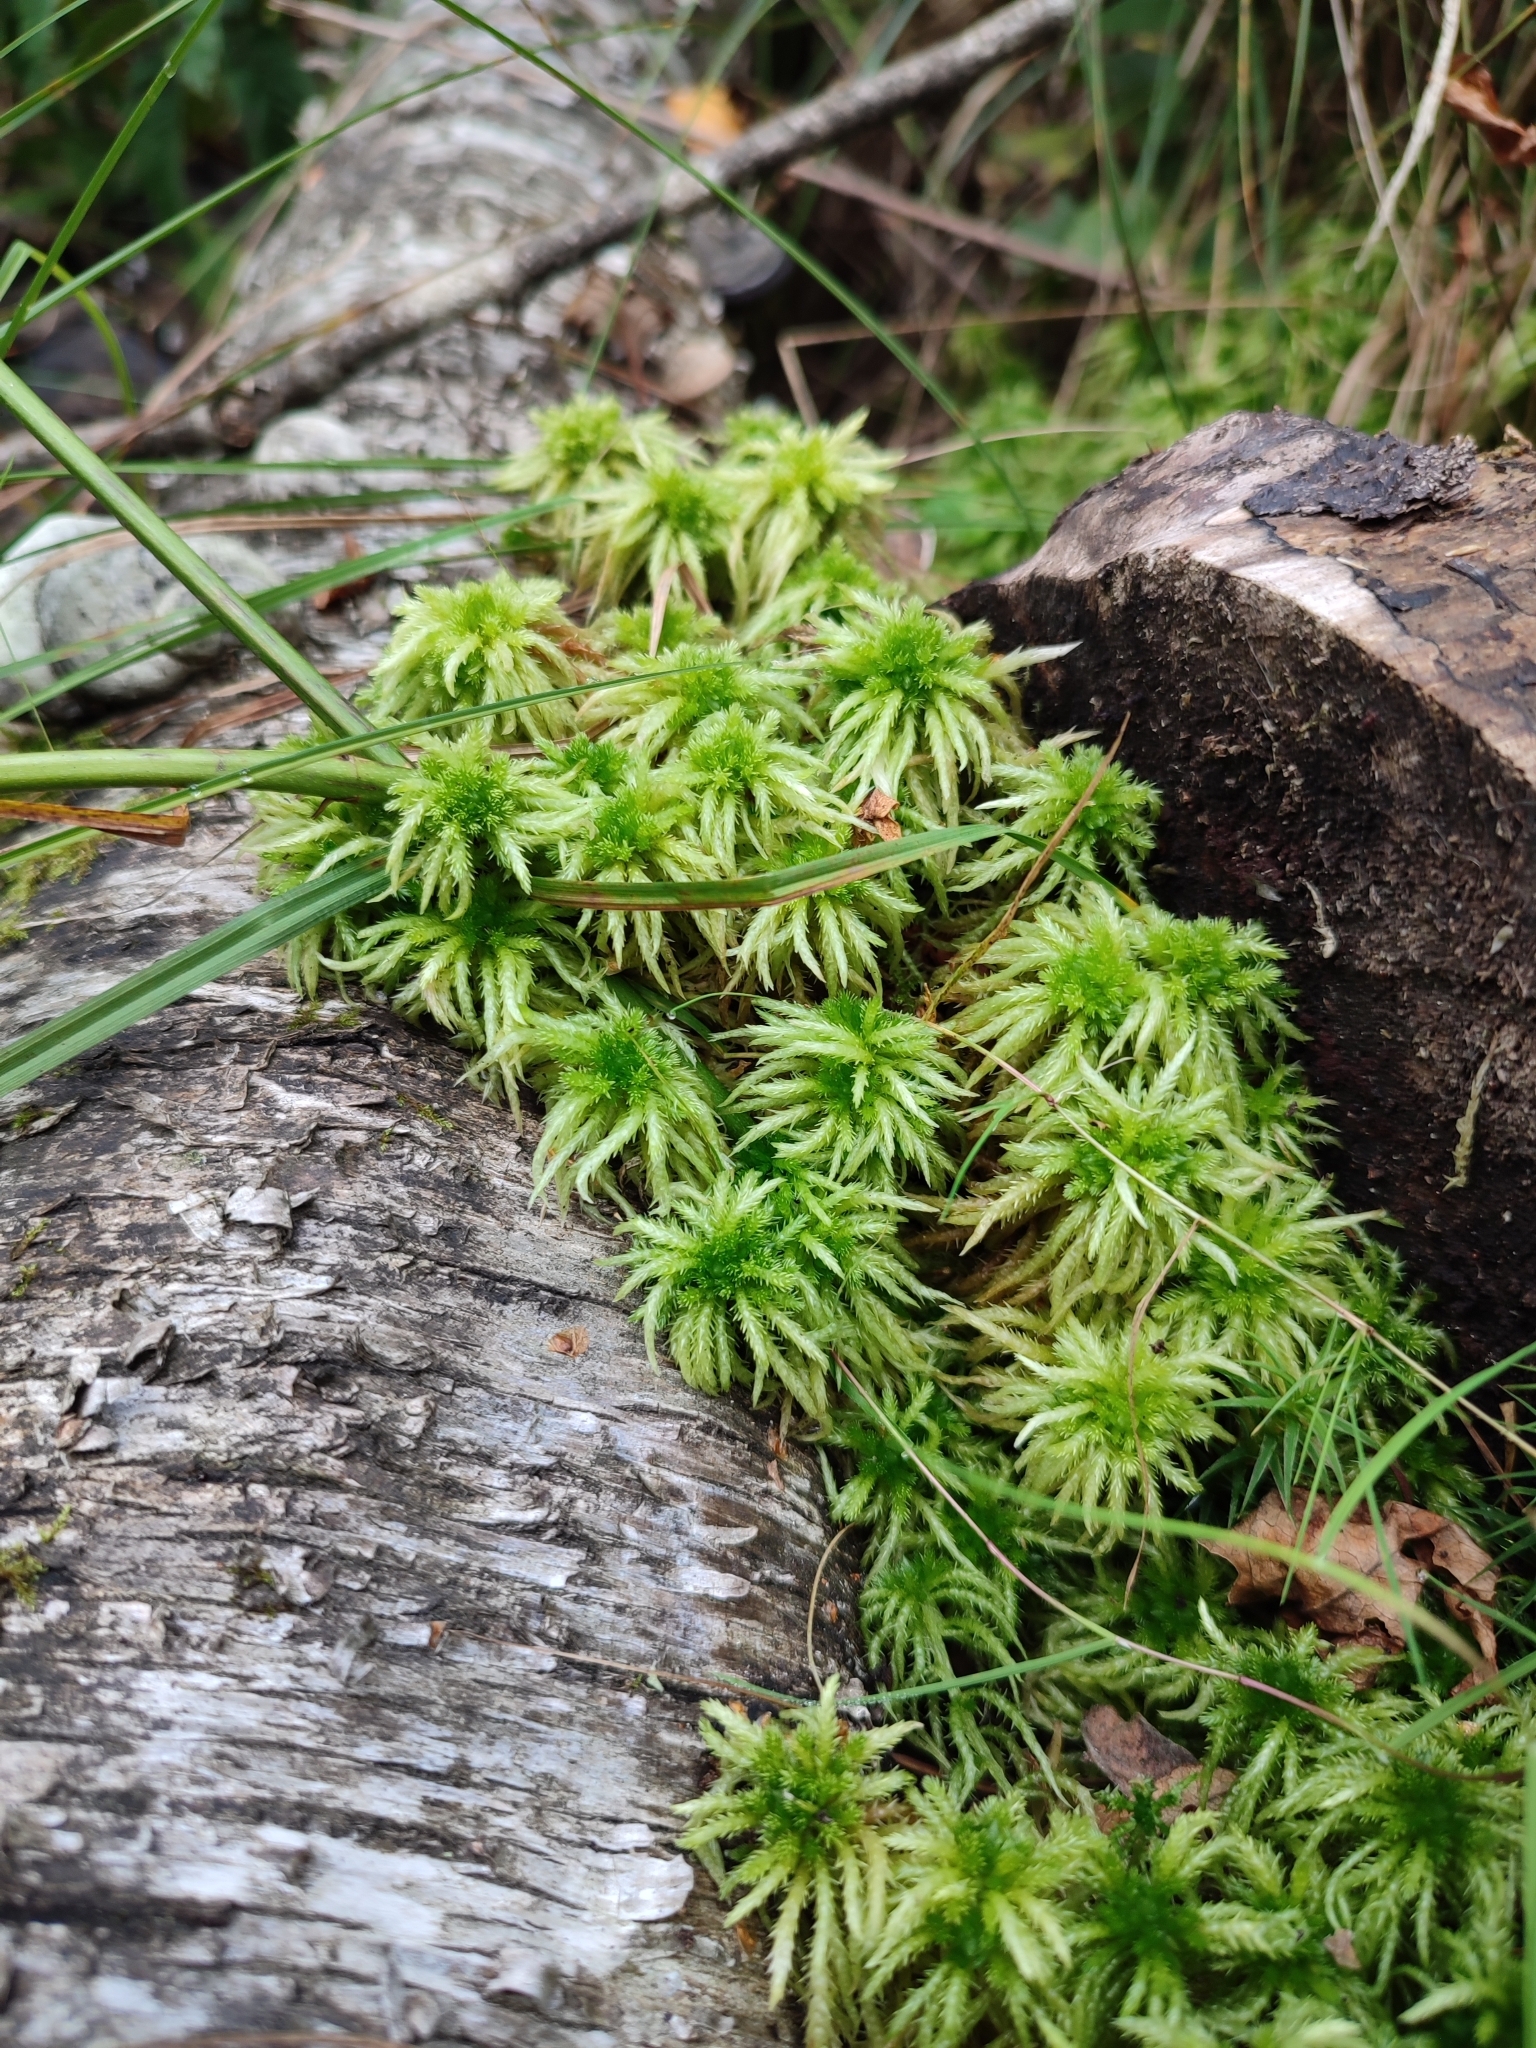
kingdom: Plantae
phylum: Bryophyta
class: Sphagnopsida
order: Sphagnales
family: Sphagnaceae
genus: Sphagnum
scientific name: Sphagnum squarrosum
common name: Shaggy peat moss
